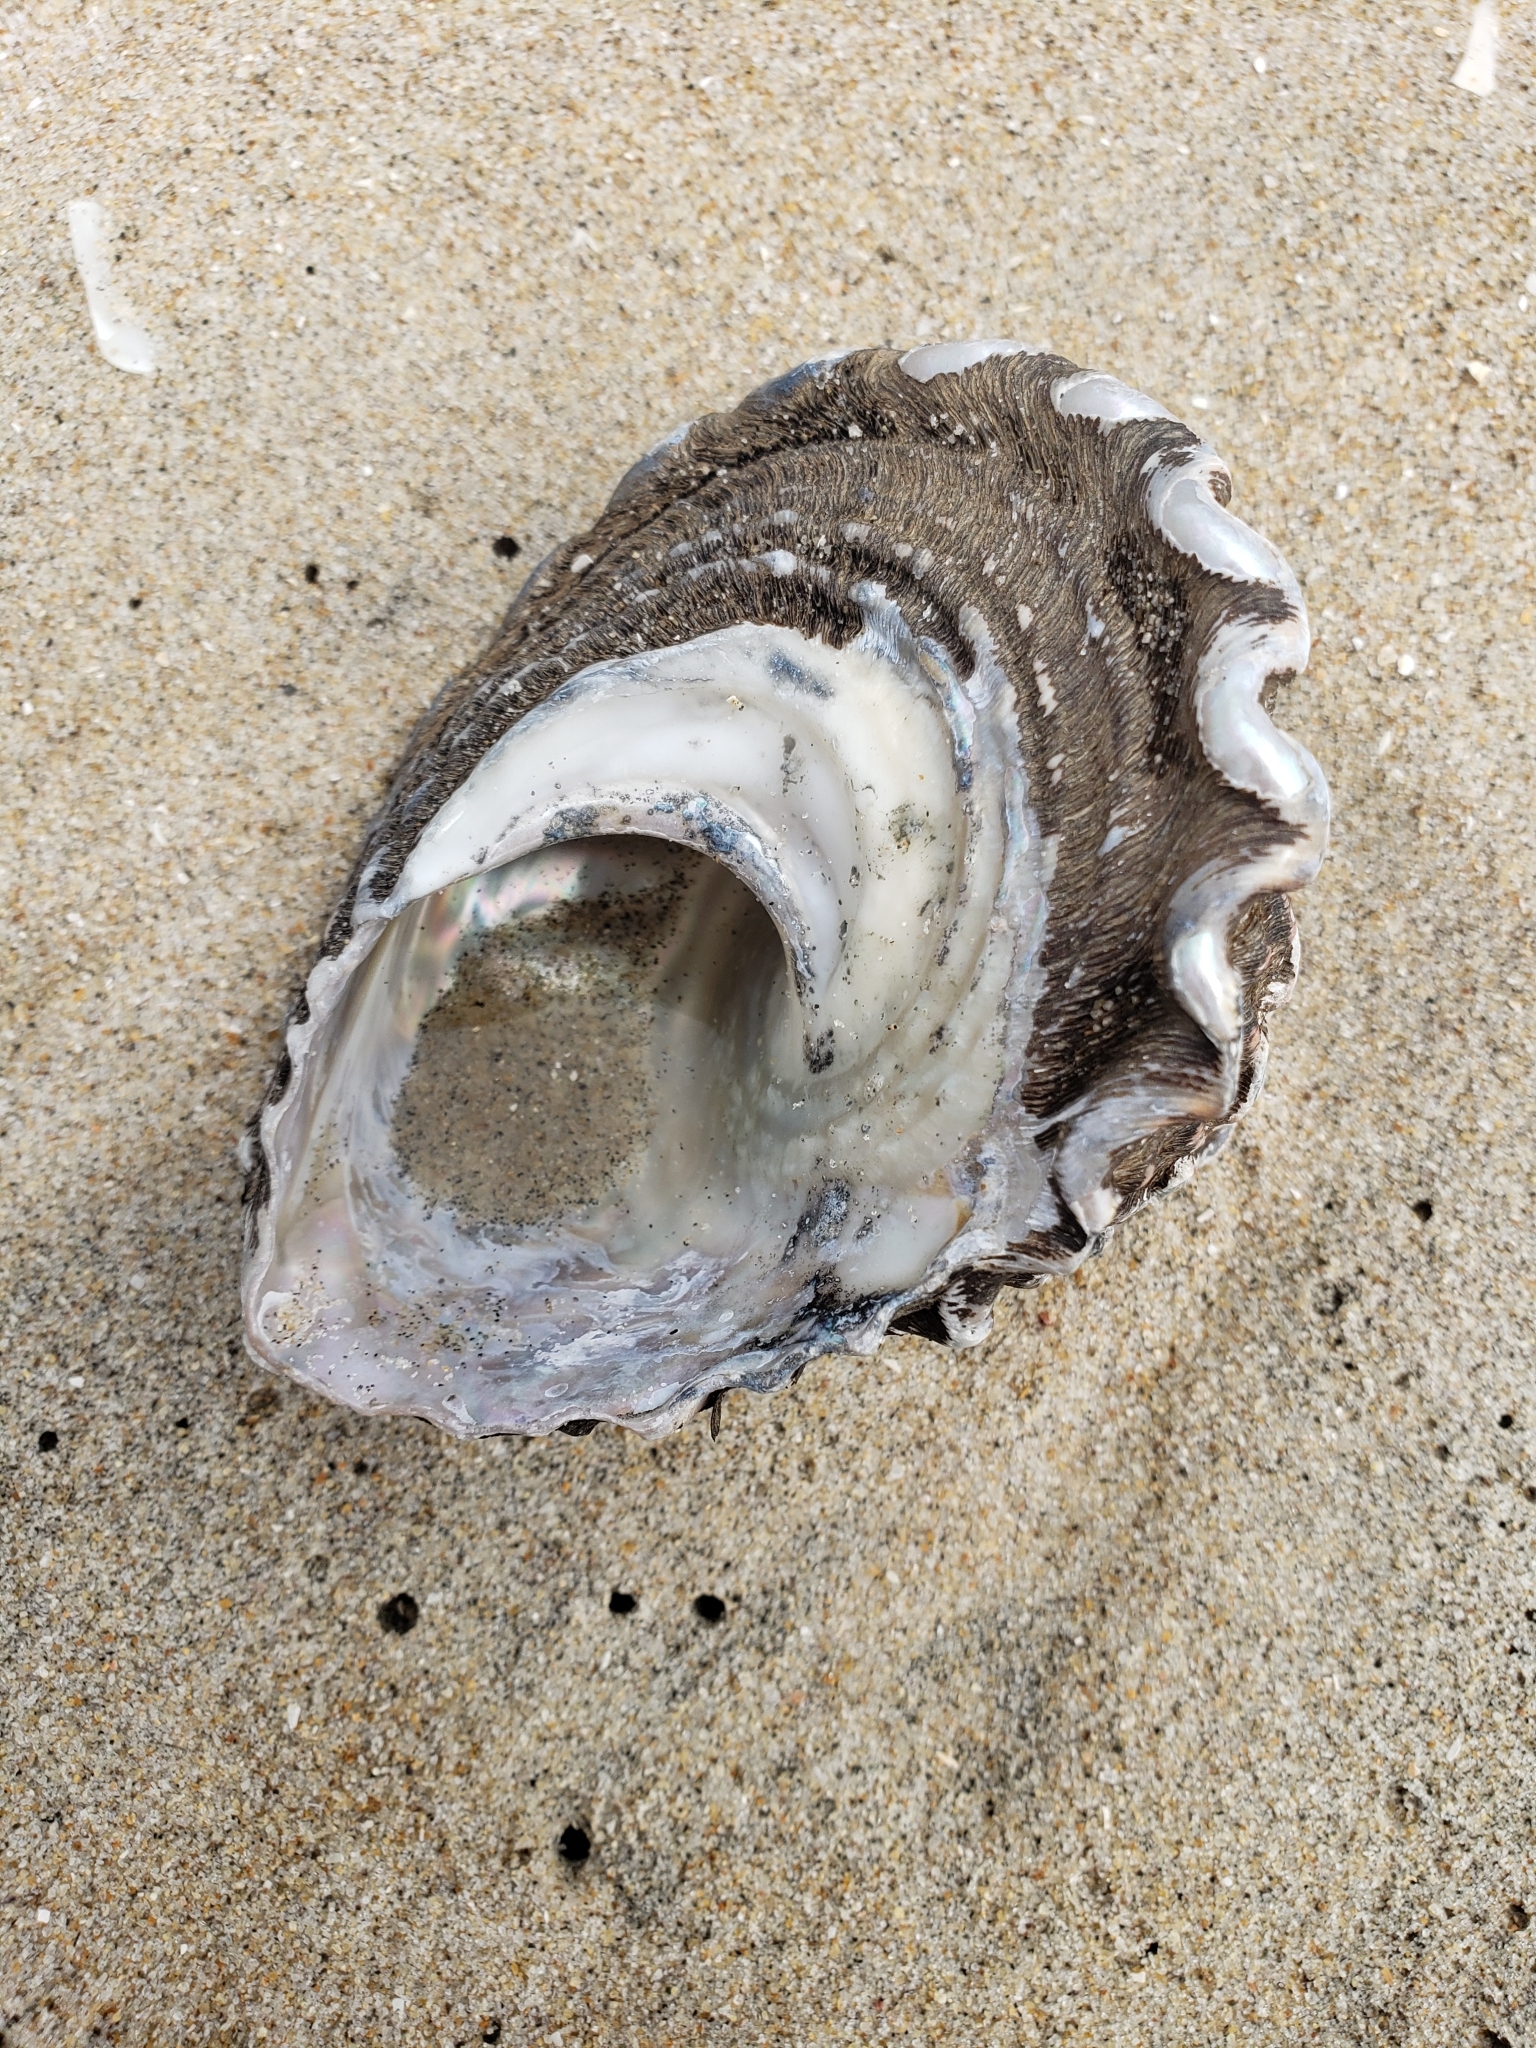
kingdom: Animalia
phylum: Mollusca
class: Gastropoda
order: Trochida
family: Turbinidae
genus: Megastraea
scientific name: Megastraea undosa
